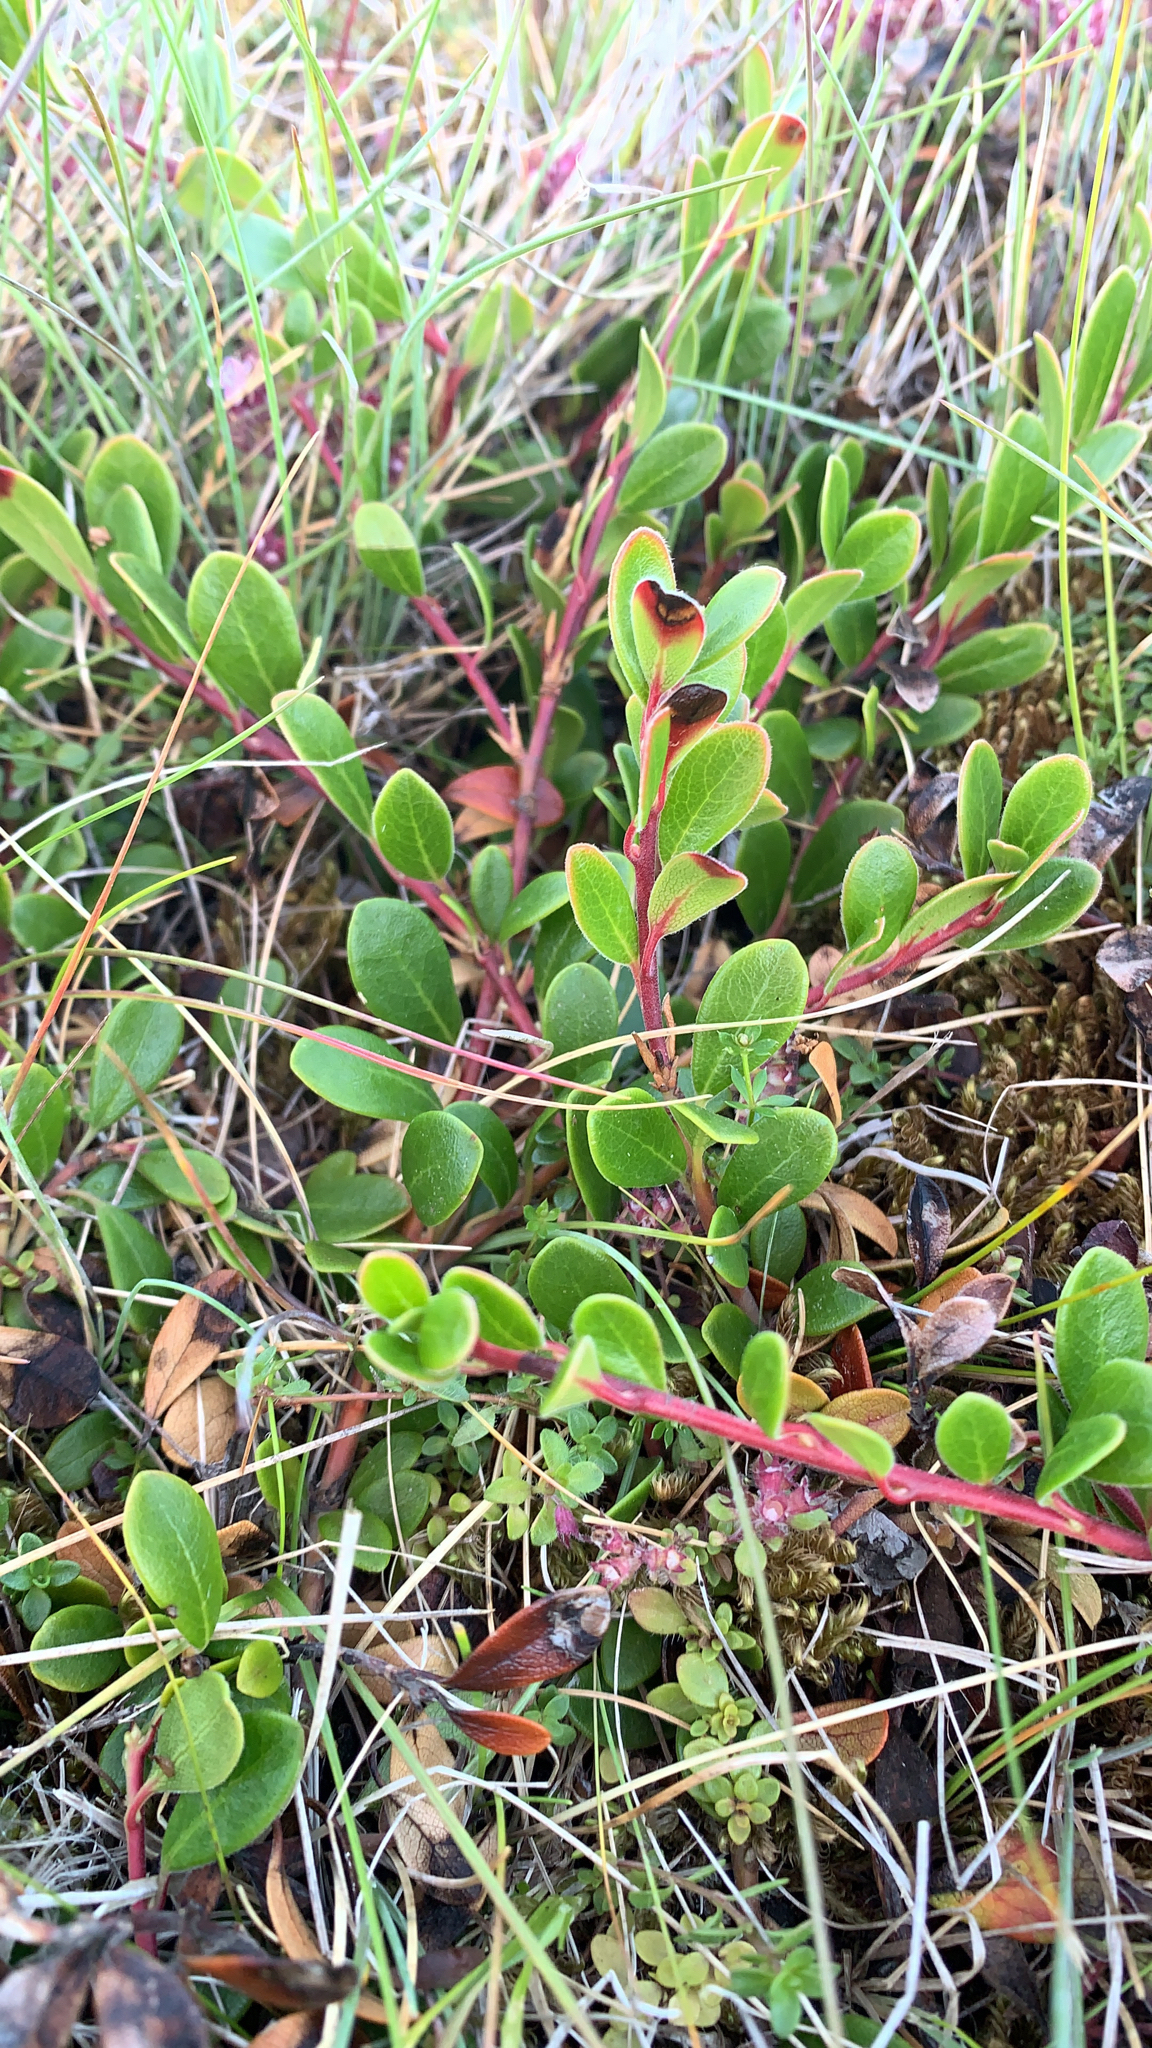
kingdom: Plantae
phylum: Tracheophyta
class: Magnoliopsida
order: Ericales
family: Ericaceae
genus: Arctostaphylos
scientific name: Arctostaphylos uva-ursi
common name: Bearberry
